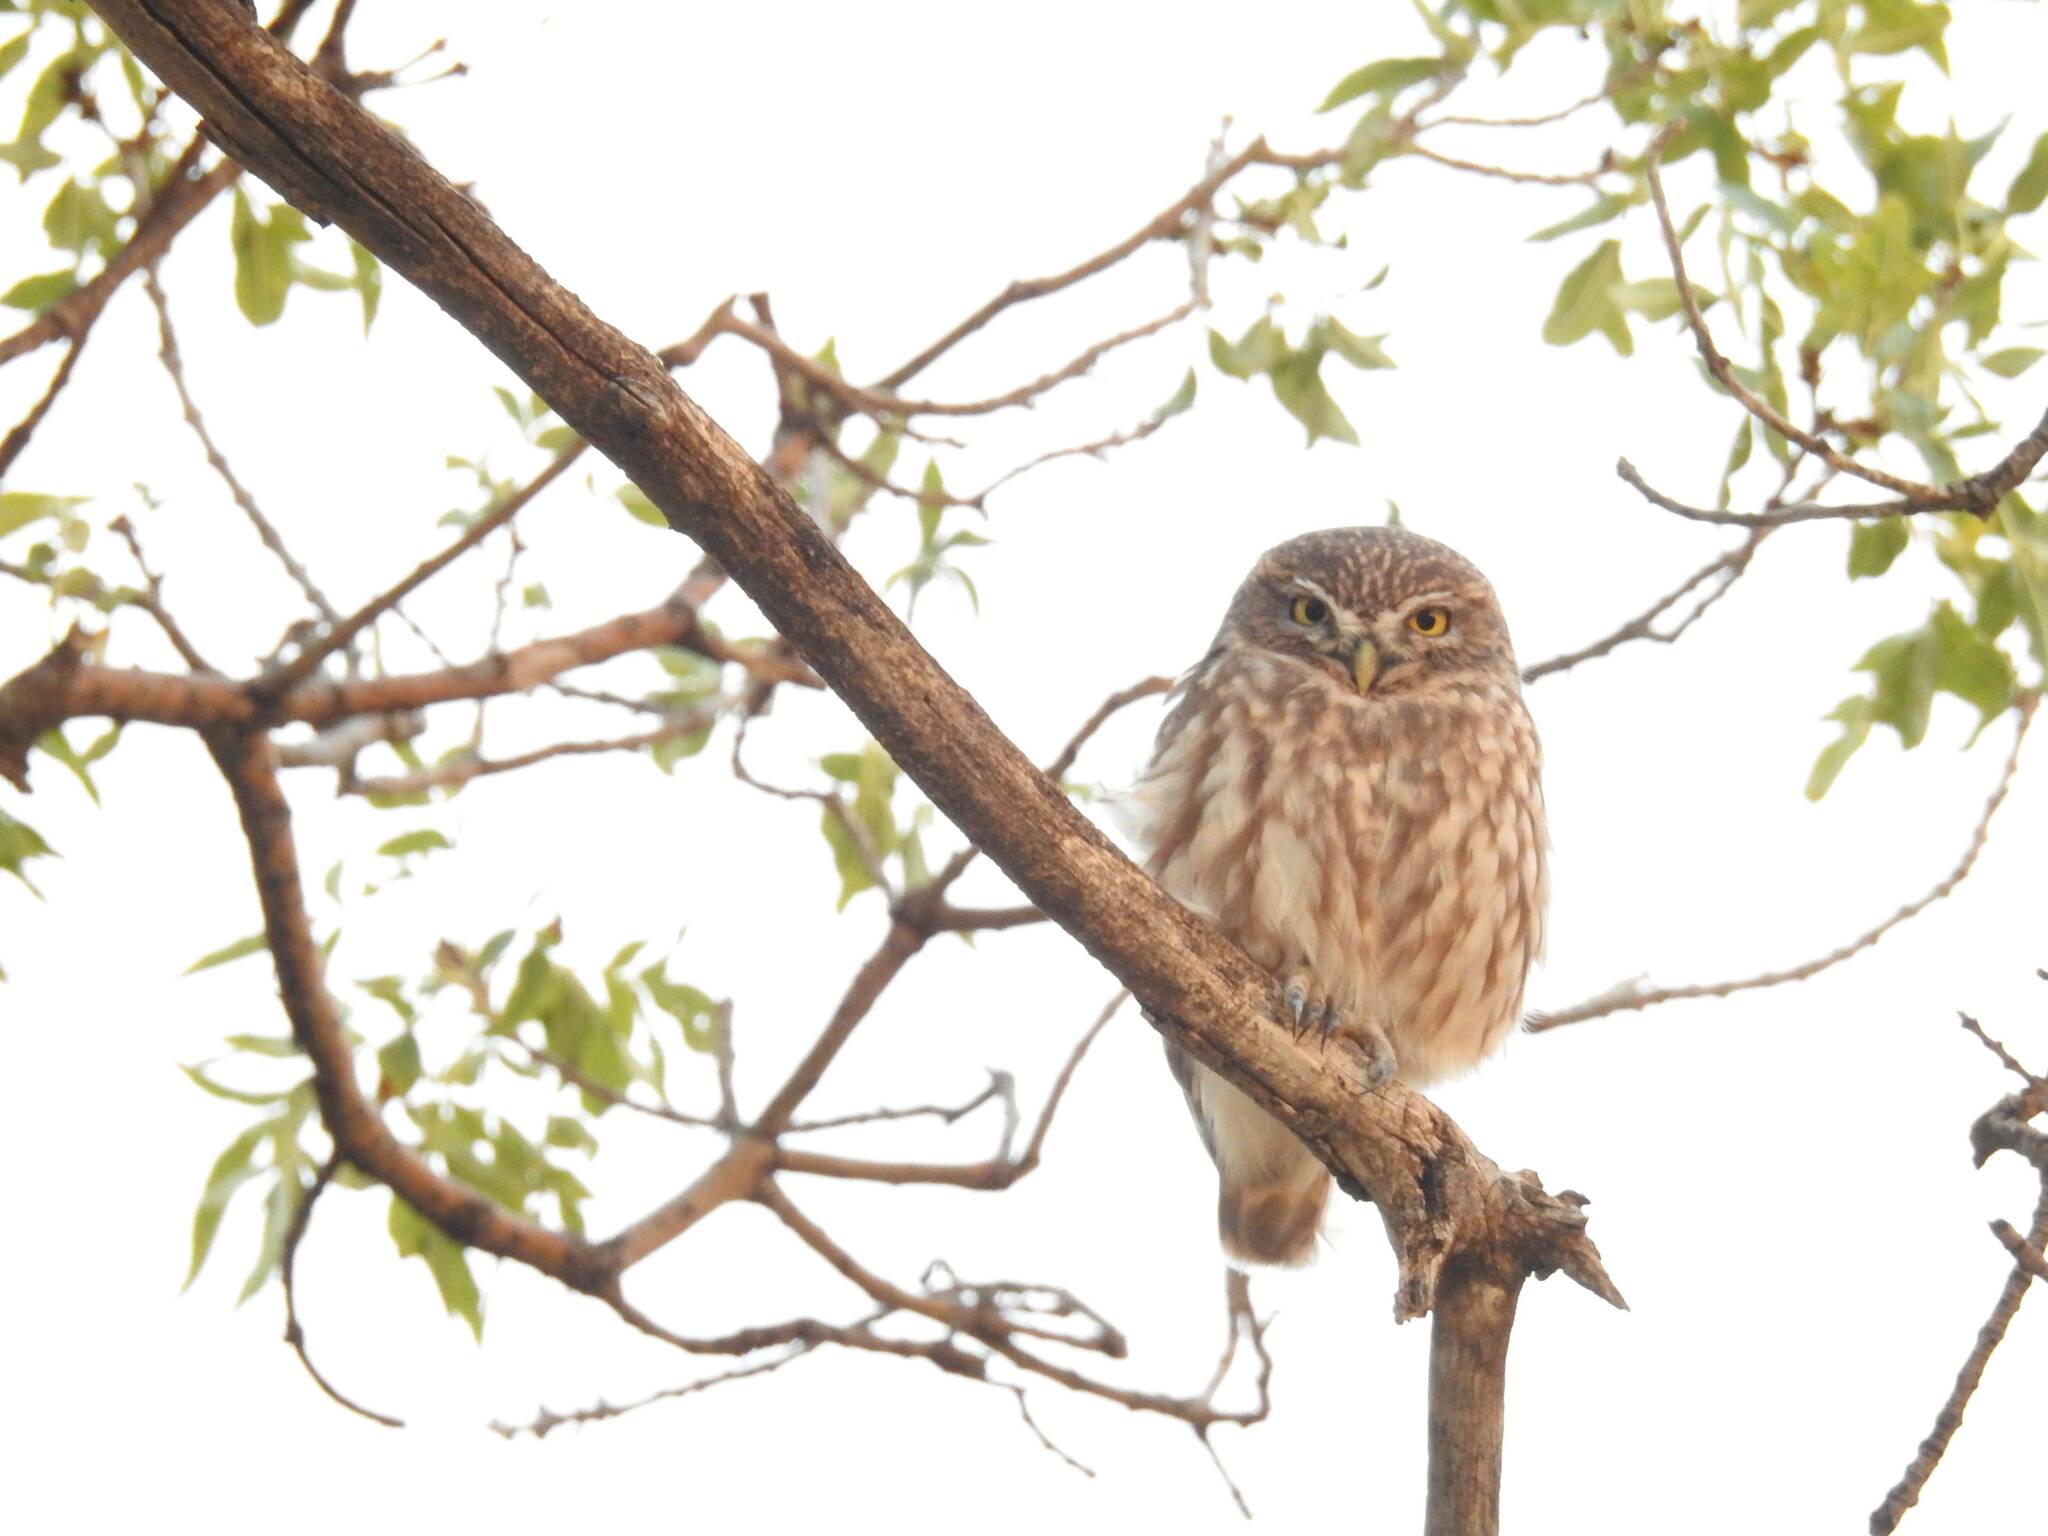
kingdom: Animalia
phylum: Chordata
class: Aves
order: Strigiformes
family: Strigidae
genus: Athene
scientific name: Athene noctua
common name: Little owl
